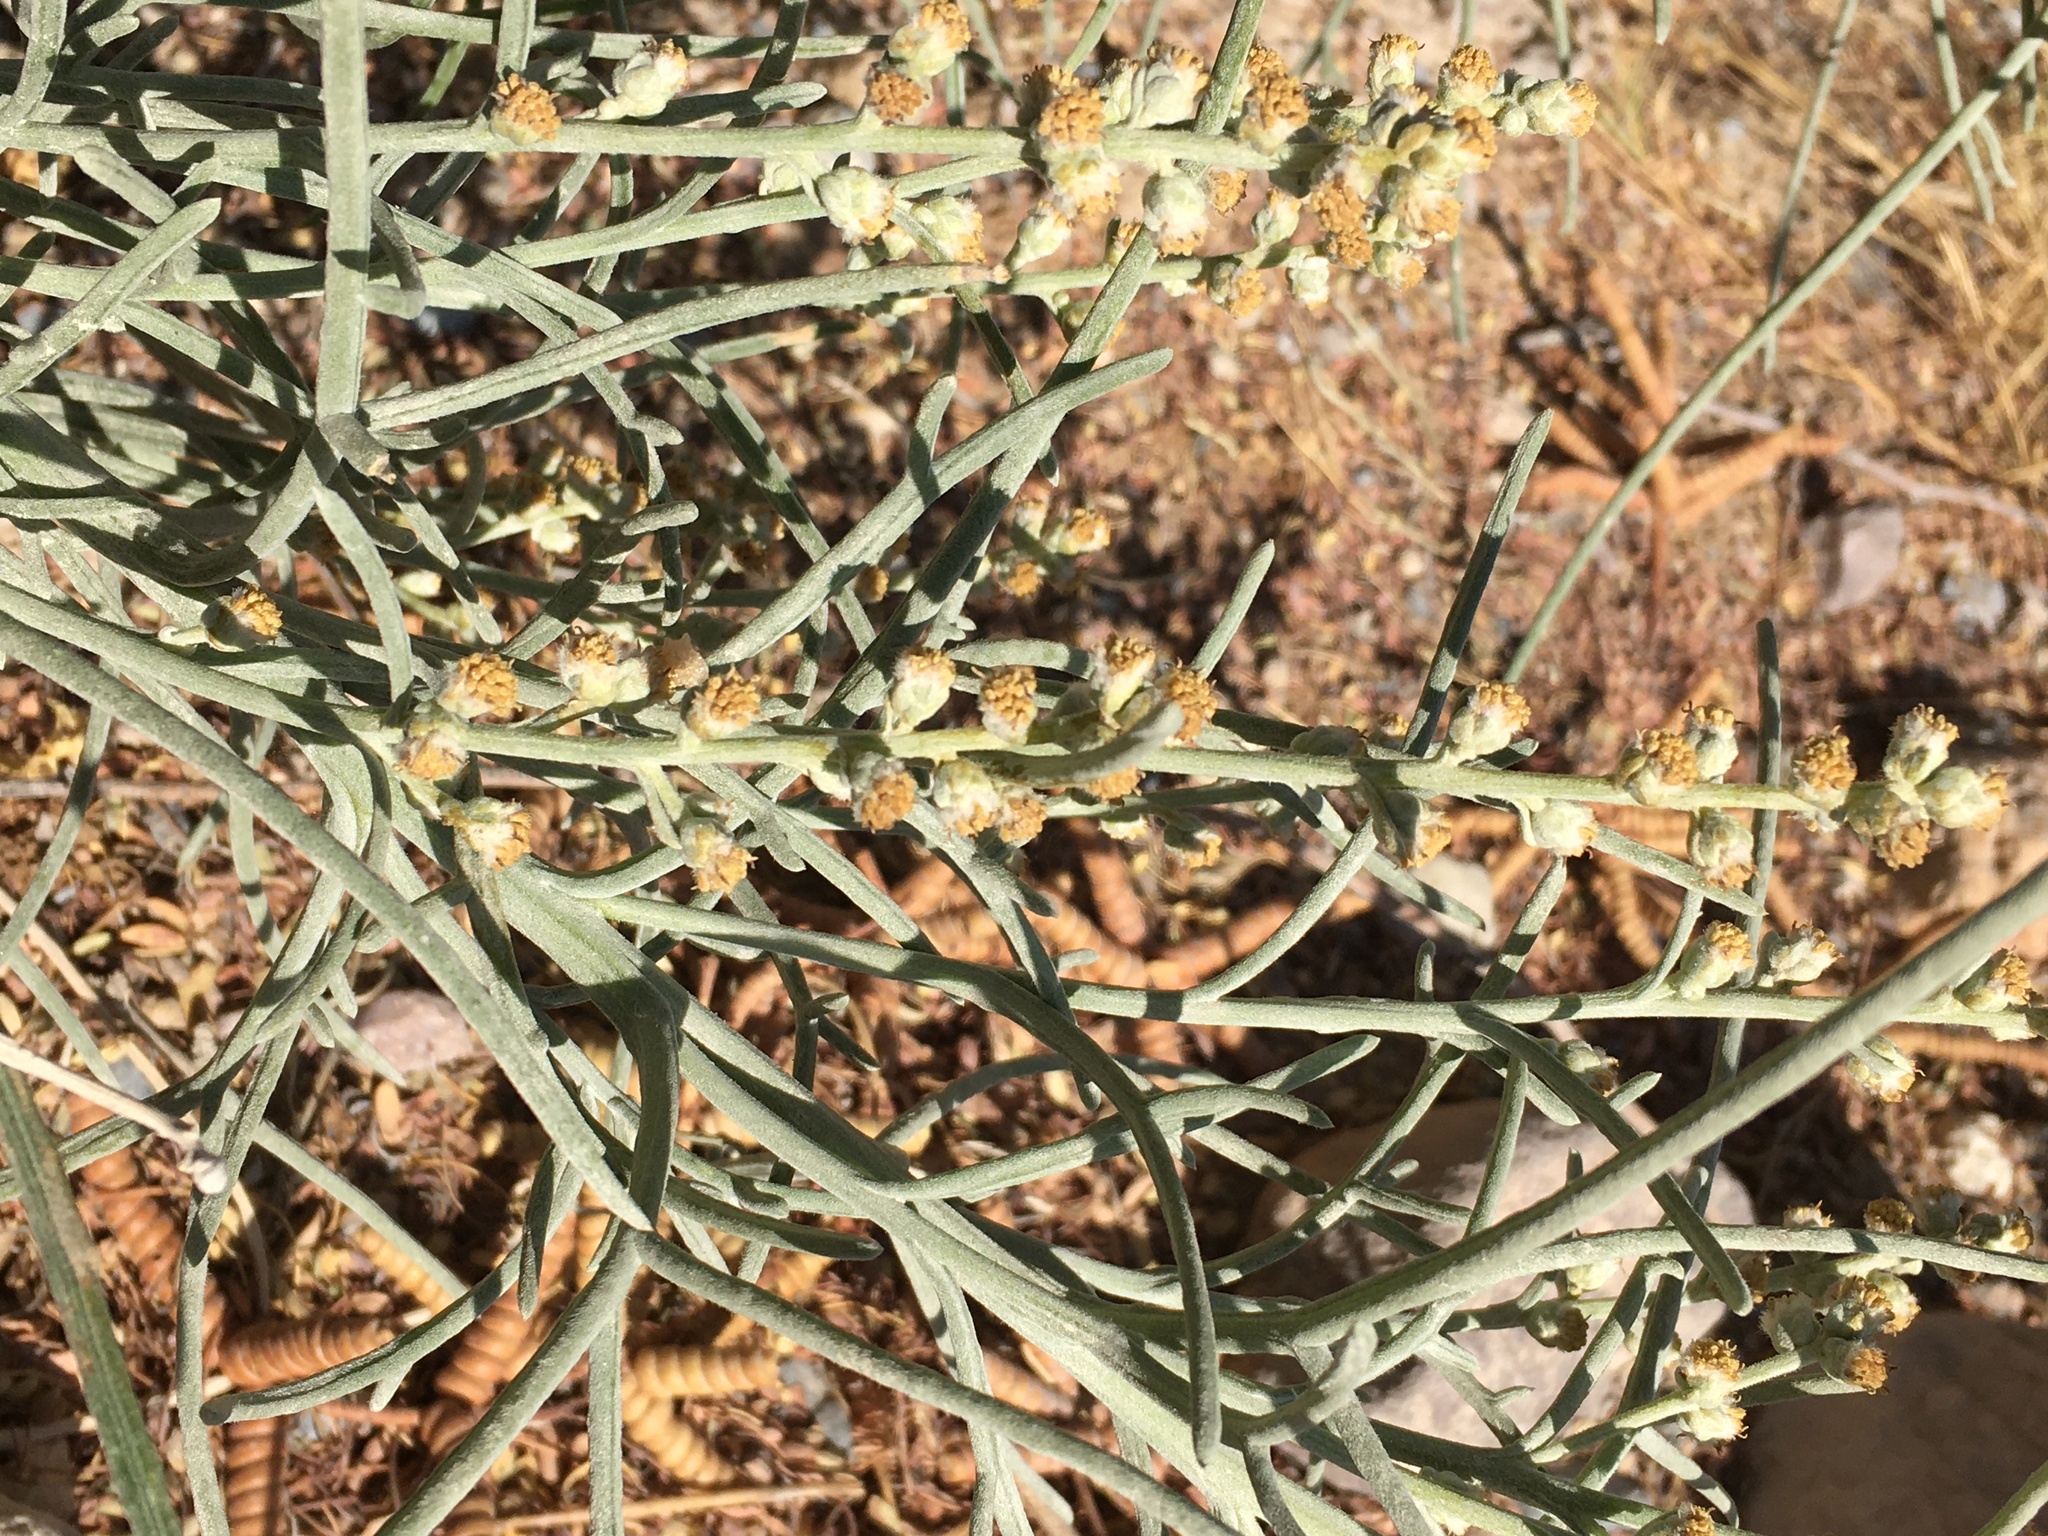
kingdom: Plantae
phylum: Tracheophyta
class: Magnoliopsida
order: Asterales
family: Asteraceae
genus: Euphrosyne
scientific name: Euphrosyne acerosa
